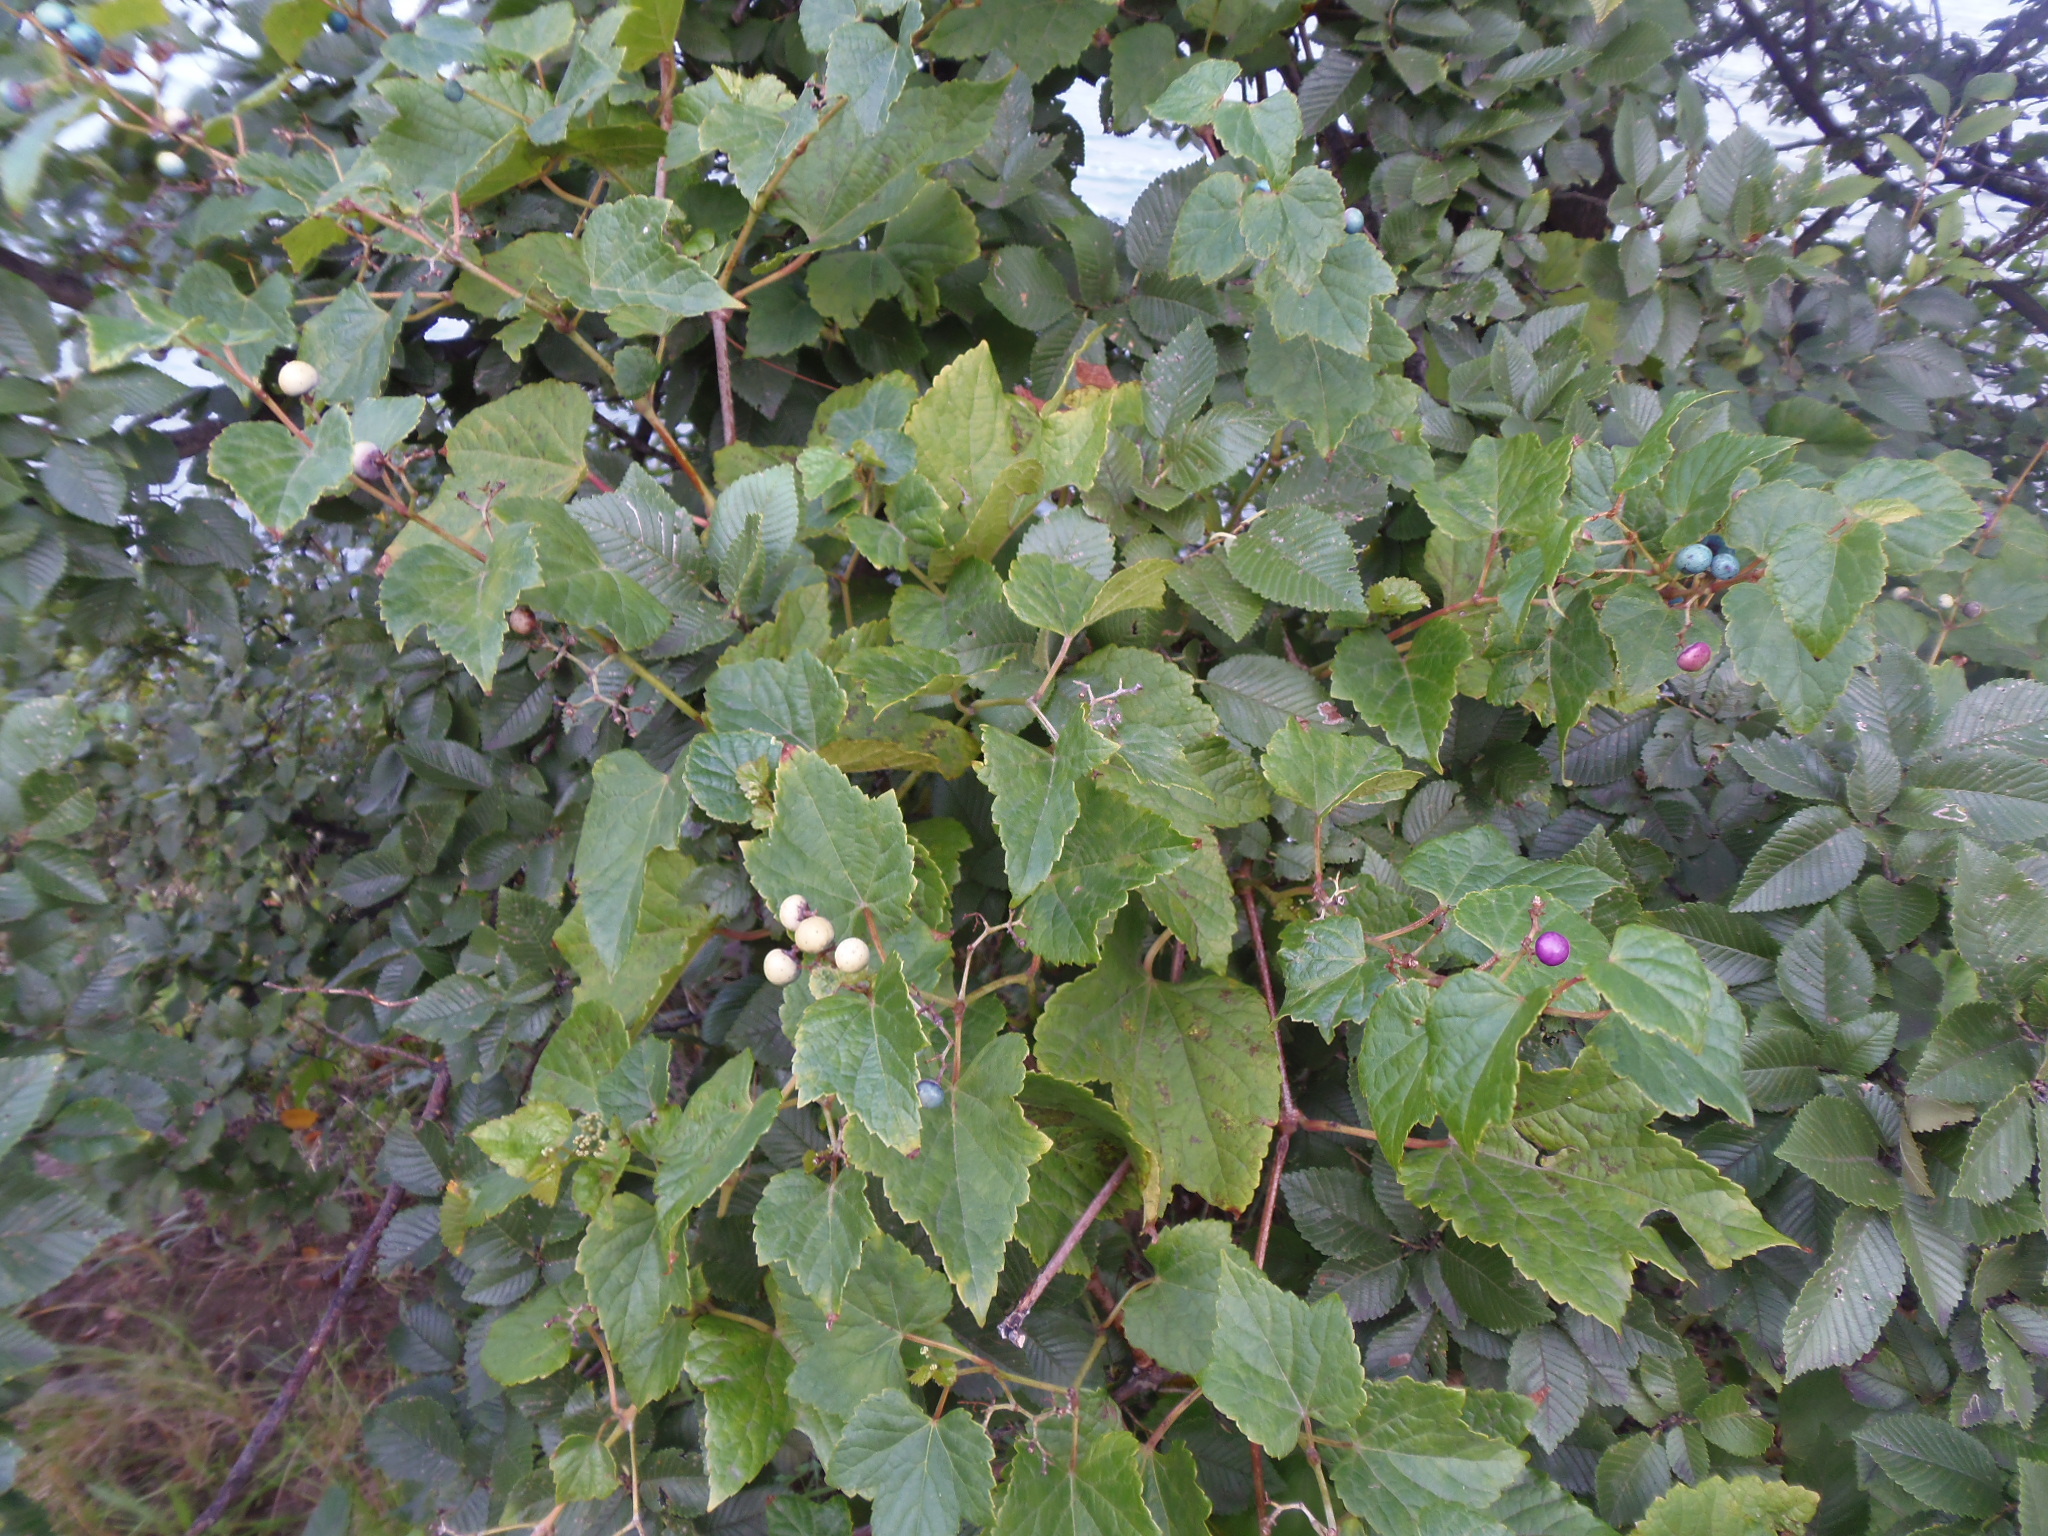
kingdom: Plantae
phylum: Tracheophyta
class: Magnoliopsida
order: Vitales
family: Vitaceae
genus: Ampelopsis
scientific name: Ampelopsis glandulosa
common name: Amur peppervine
